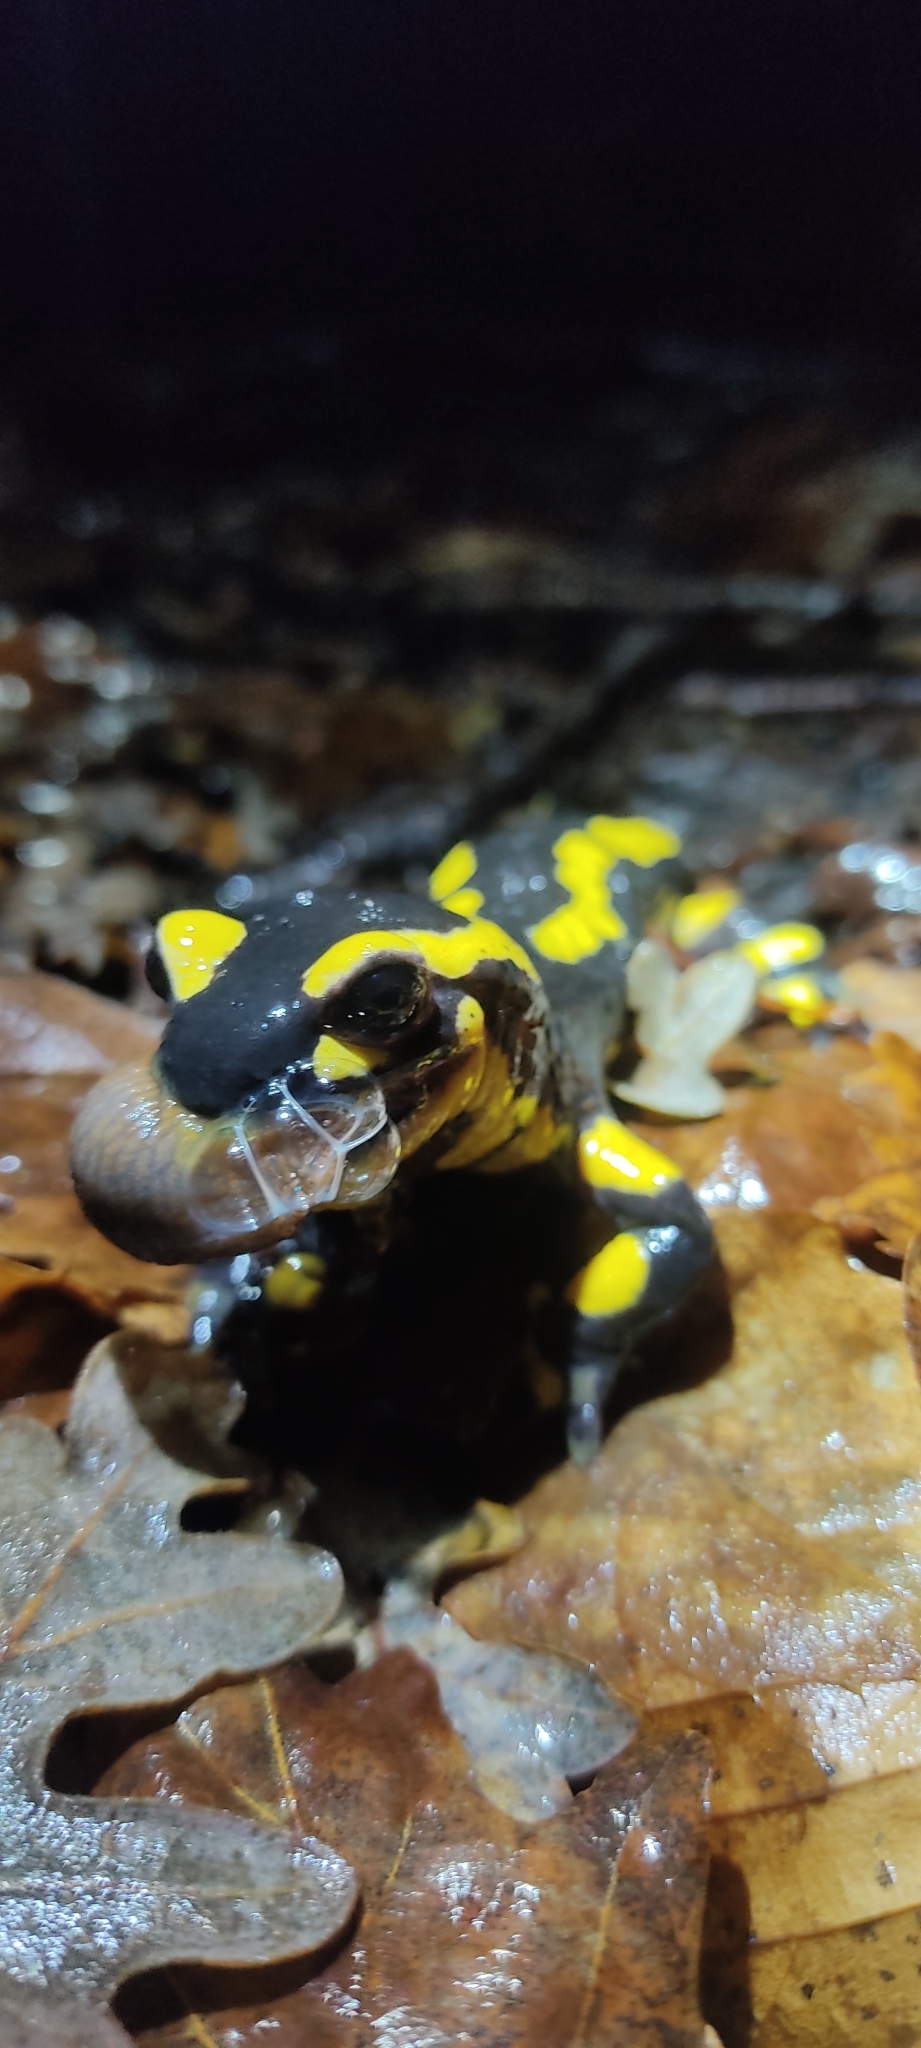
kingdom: Animalia
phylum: Chordata
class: Amphibia
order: Caudata
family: Salamandridae
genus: Salamandra
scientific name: Salamandra salamandra
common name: Fire salamander
